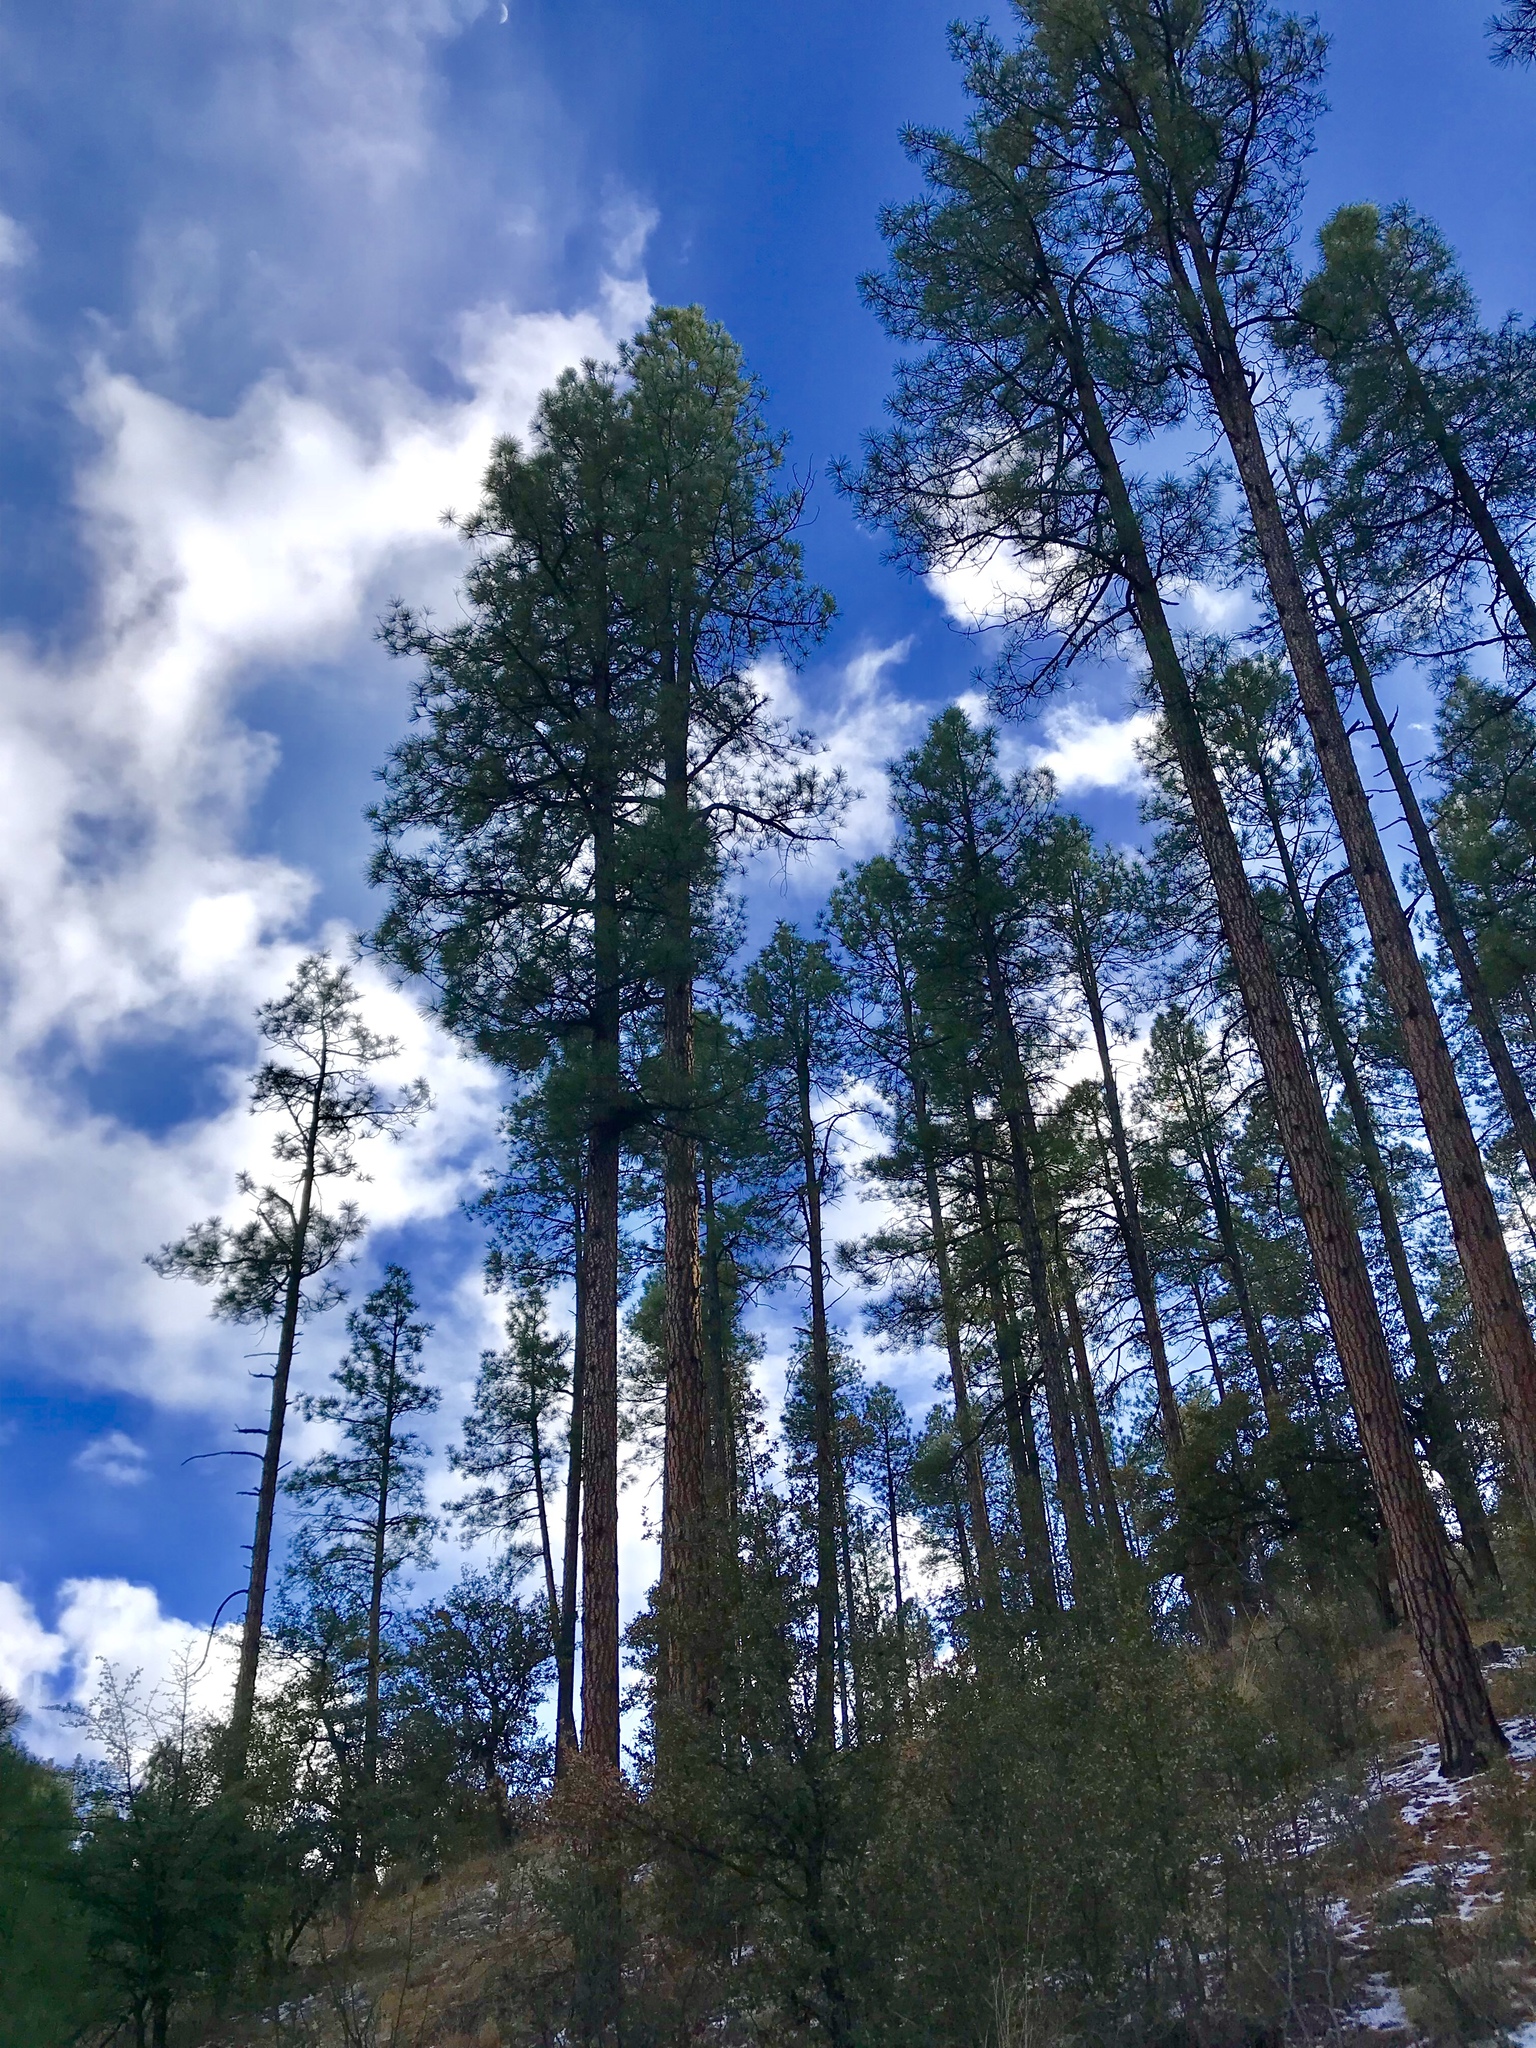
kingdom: Plantae
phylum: Tracheophyta
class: Pinopsida
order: Pinales
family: Pinaceae
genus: Pinus
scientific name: Pinus ponderosa
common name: Western yellow-pine
